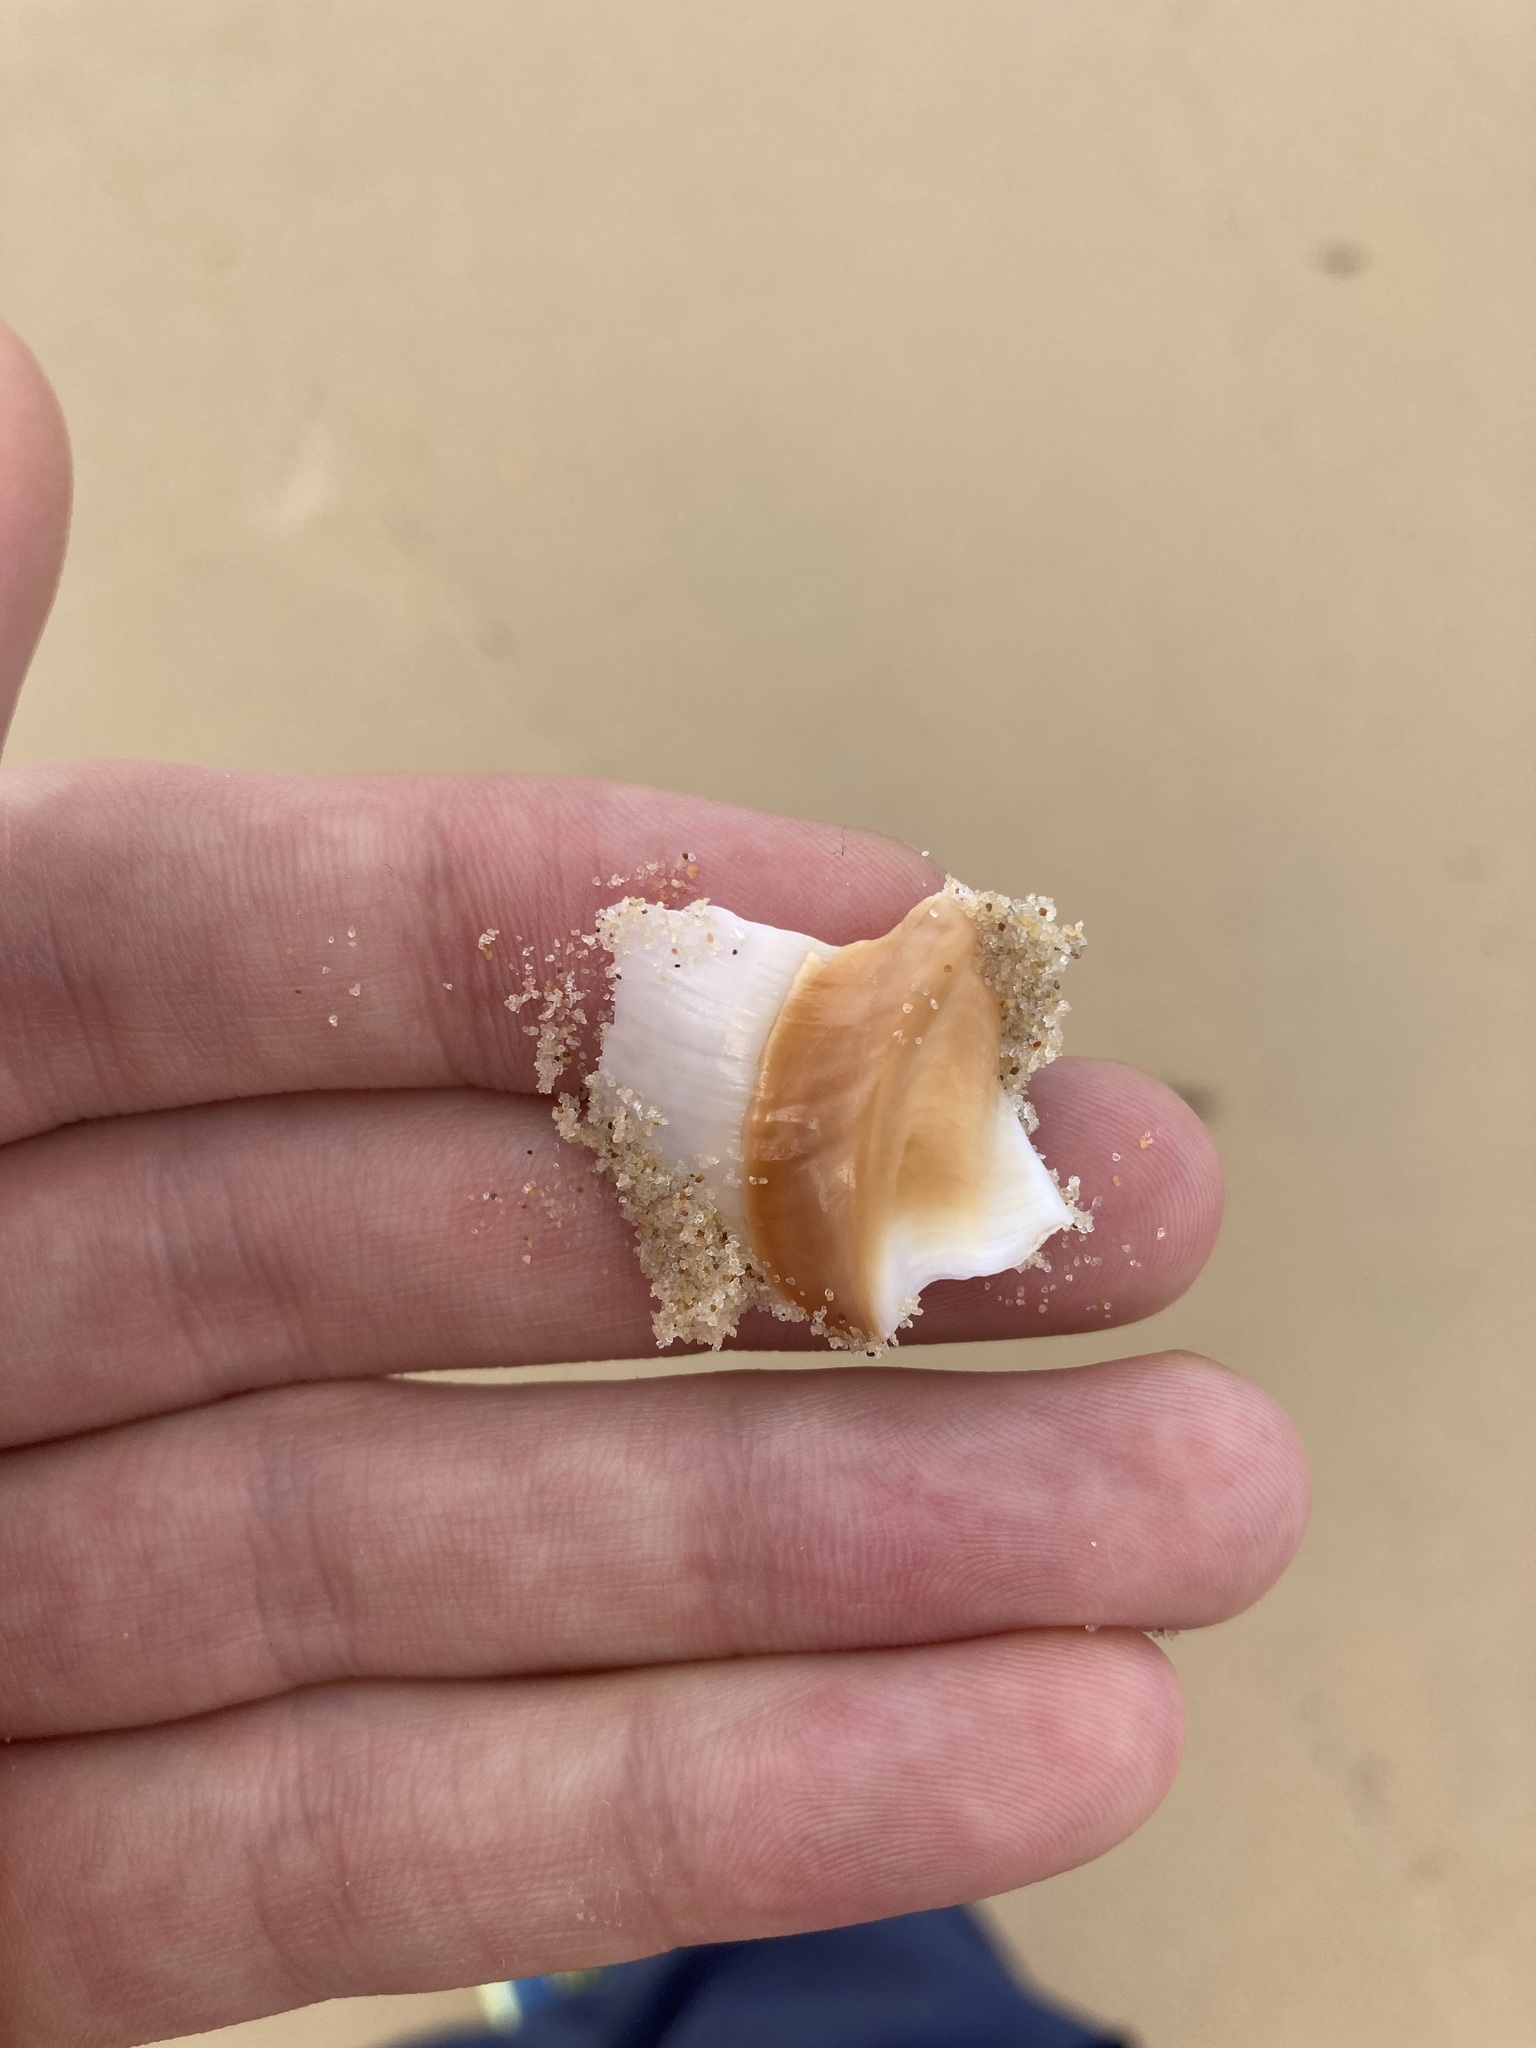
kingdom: Animalia
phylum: Mollusca
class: Gastropoda
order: Neogastropoda
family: Ancillariidae
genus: Ancillista
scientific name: Ancillista velesiana
